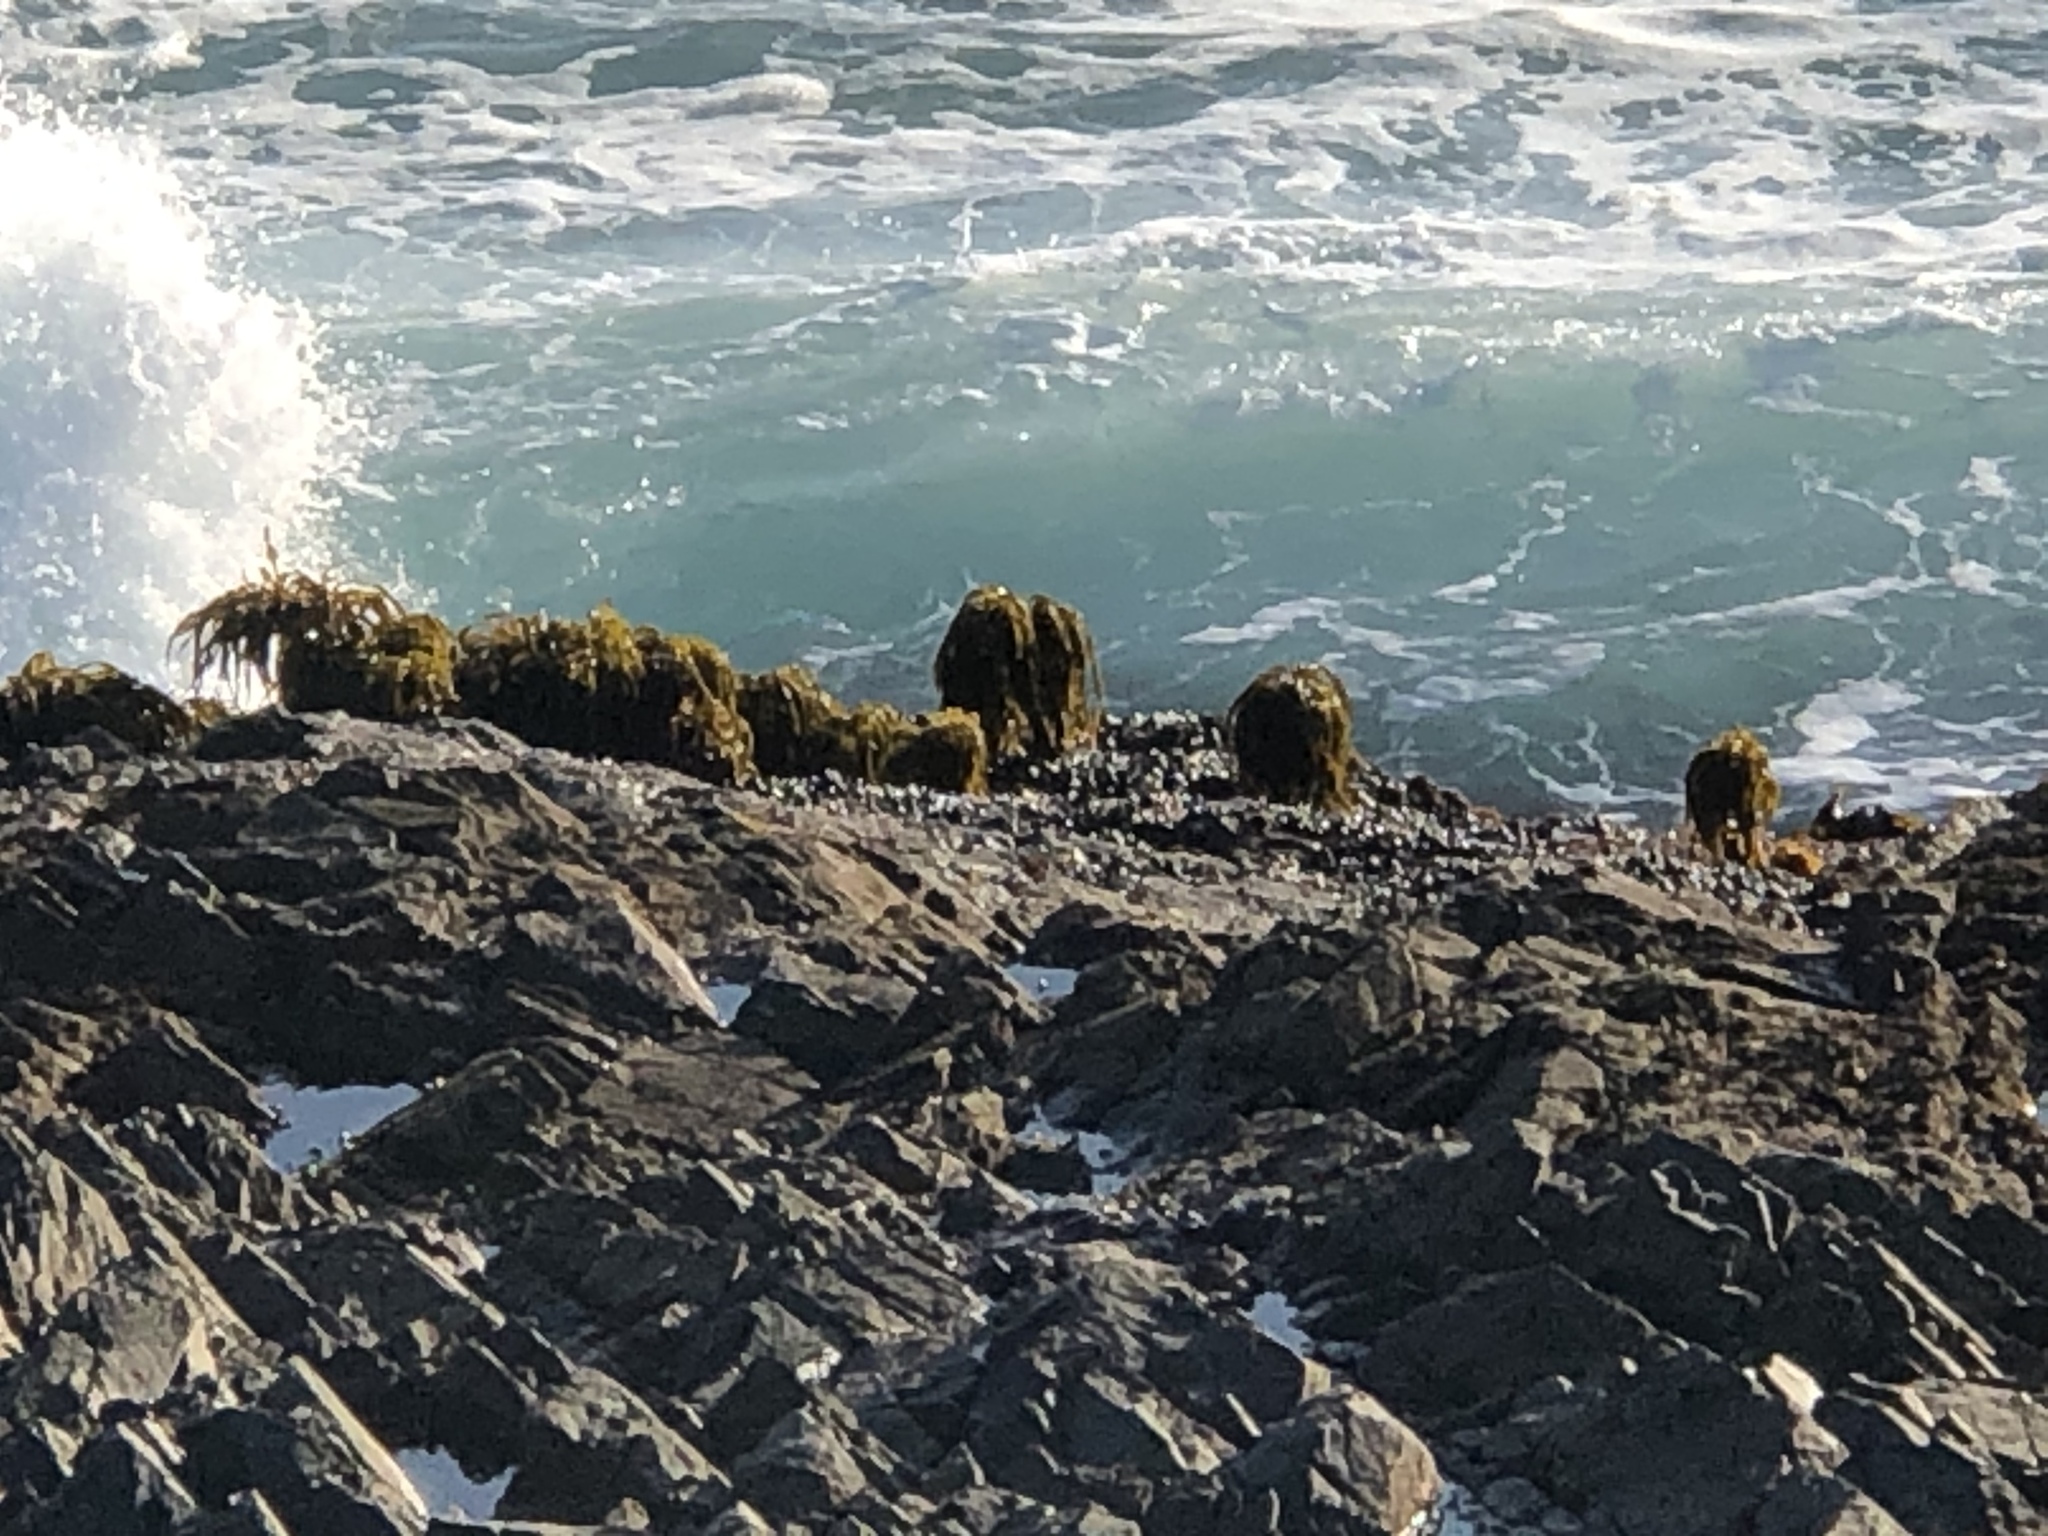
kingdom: Chromista
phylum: Ochrophyta
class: Phaeophyceae
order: Laminariales
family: Laminariaceae
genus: Postelsia
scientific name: Postelsia palmiformis
